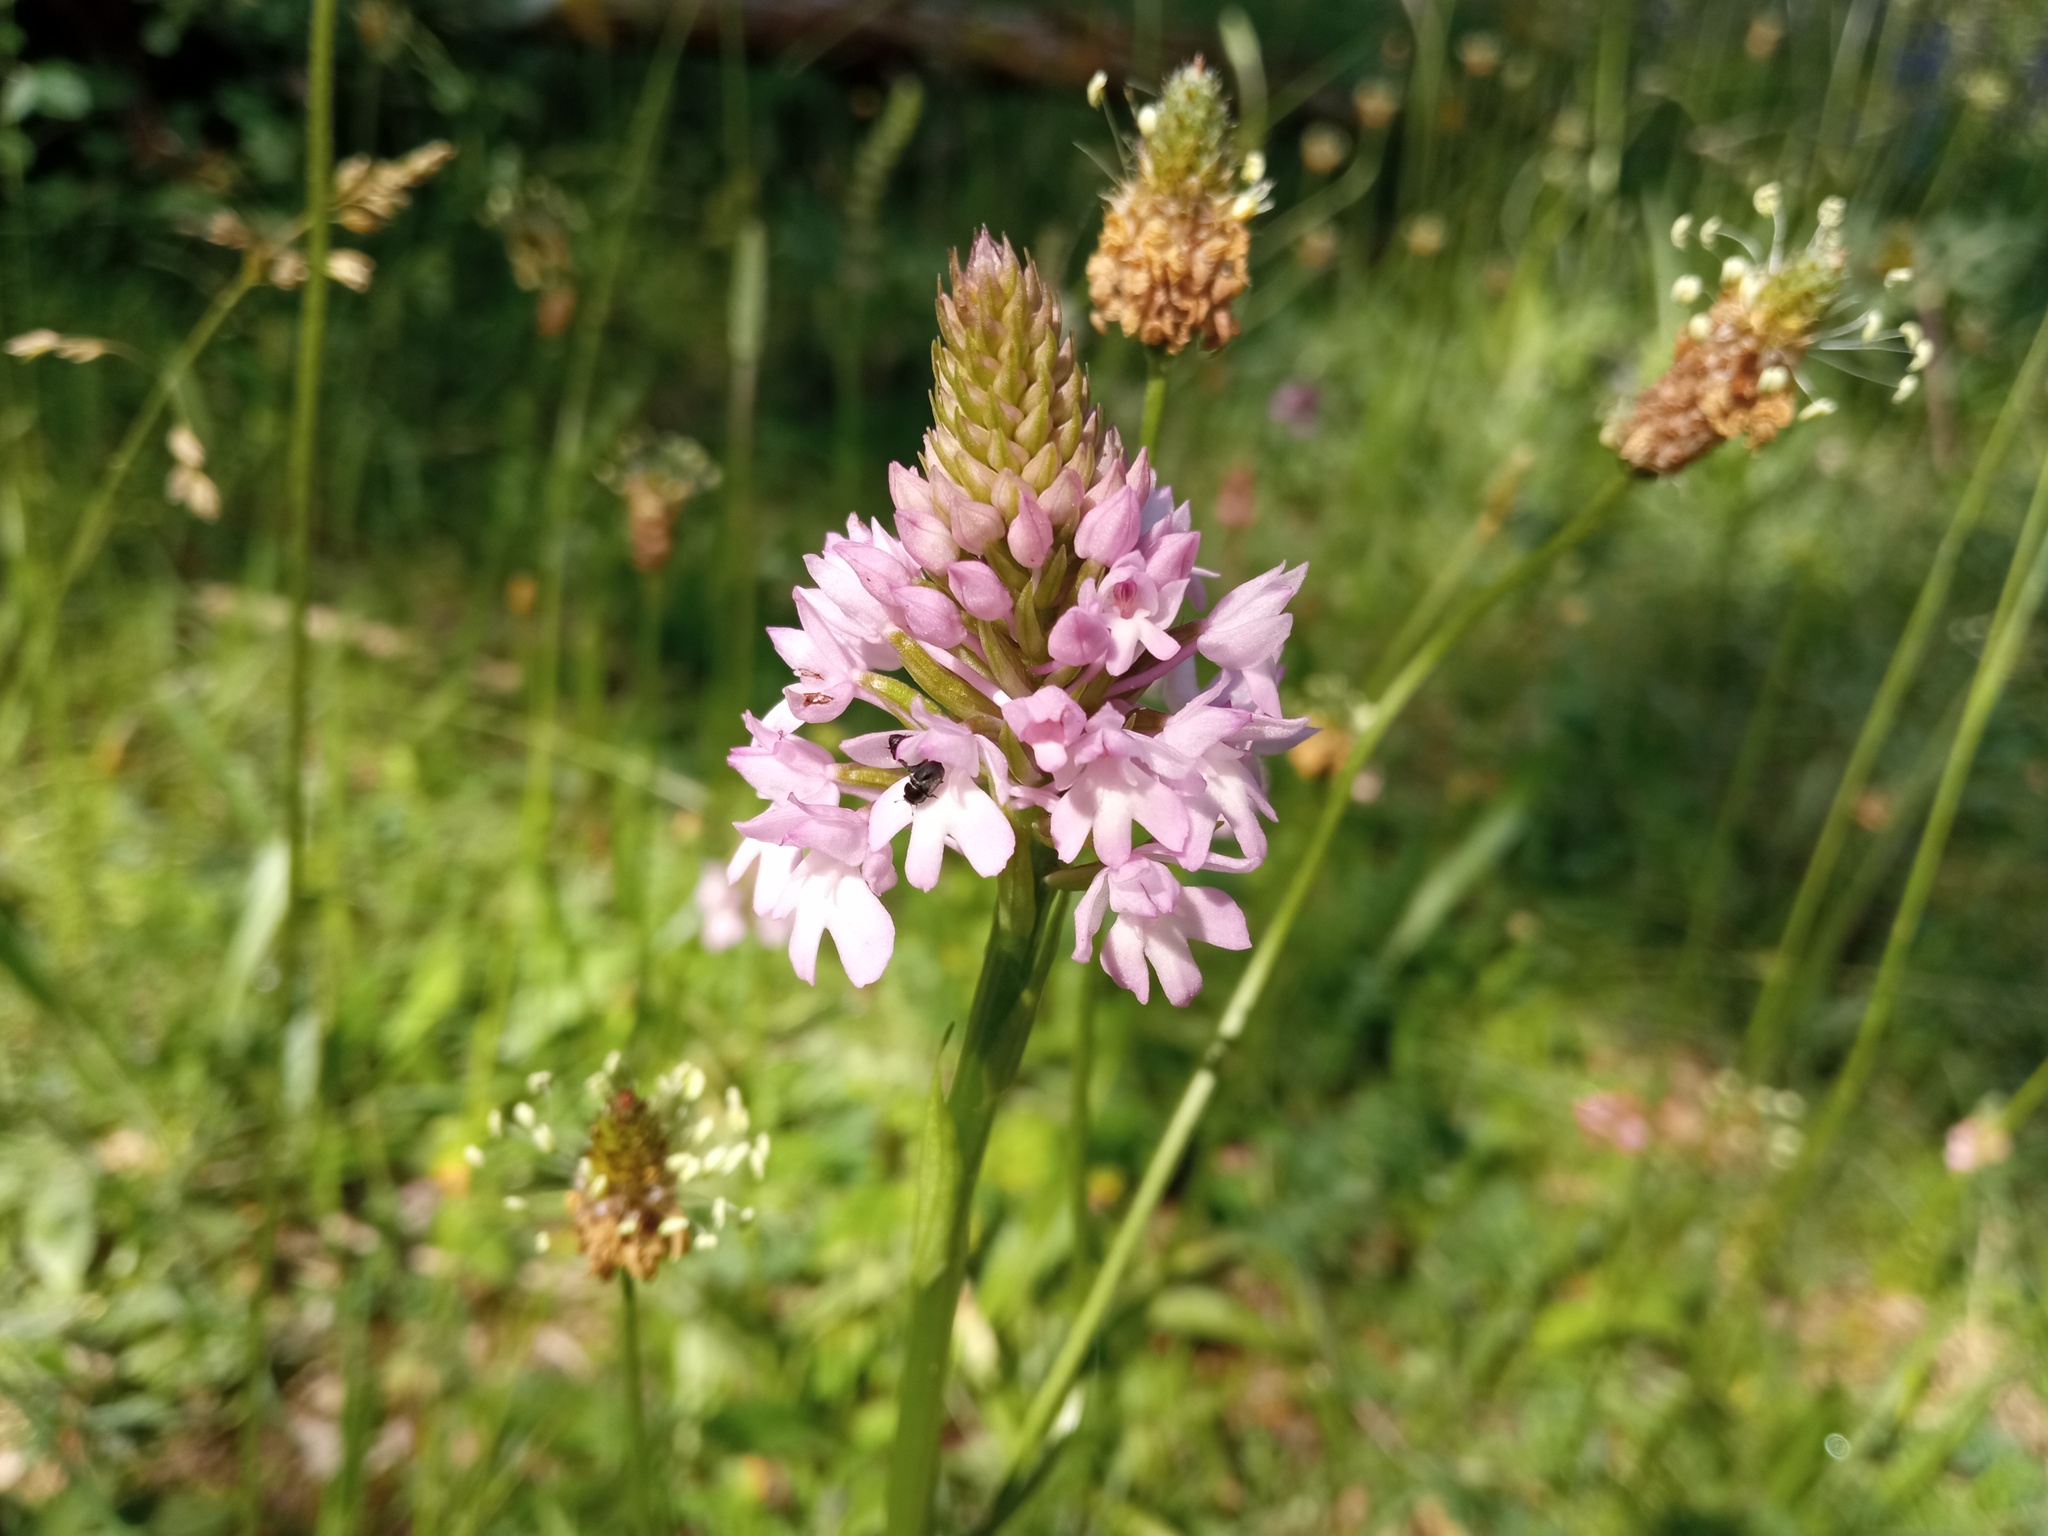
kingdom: Plantae
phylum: Tracheophyta
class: Liliopsida
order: Asparagales
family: Orchidaceae
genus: Anacamptis
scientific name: Anacamptis pyramidalis
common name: Pyramidal orchid
